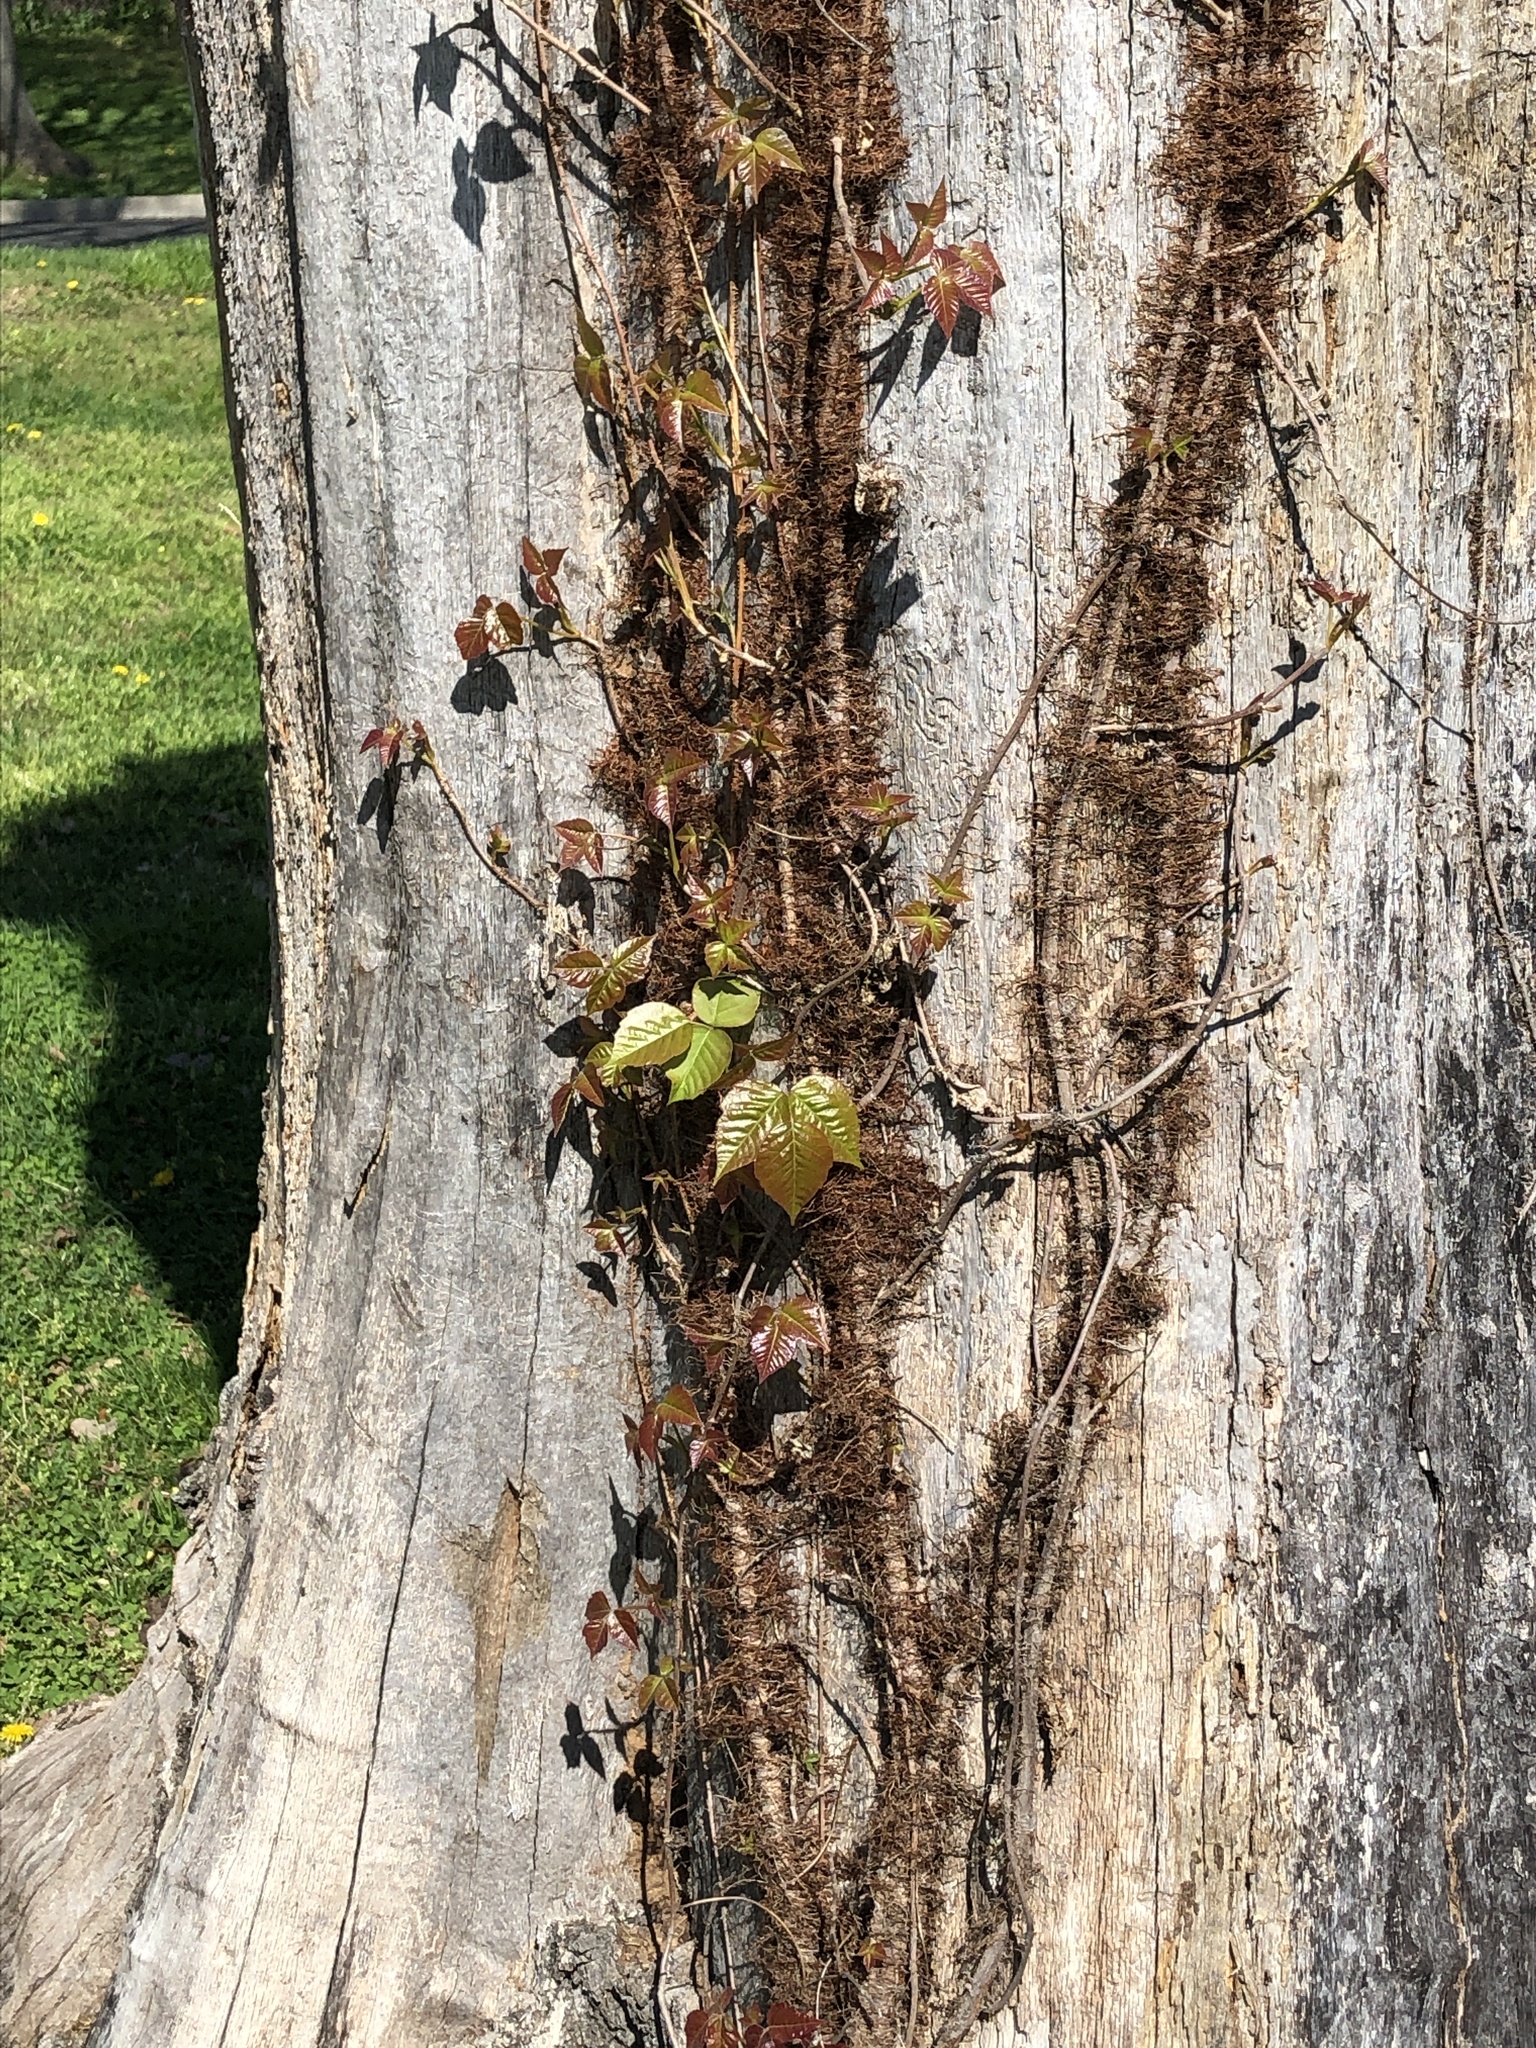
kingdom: Plantae
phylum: Tracheophyta
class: Magnoliopsida
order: Sapindales
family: Anacardiaceae
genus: Toxicodendron
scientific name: Toxicodendron radicans
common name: Poison ivy
